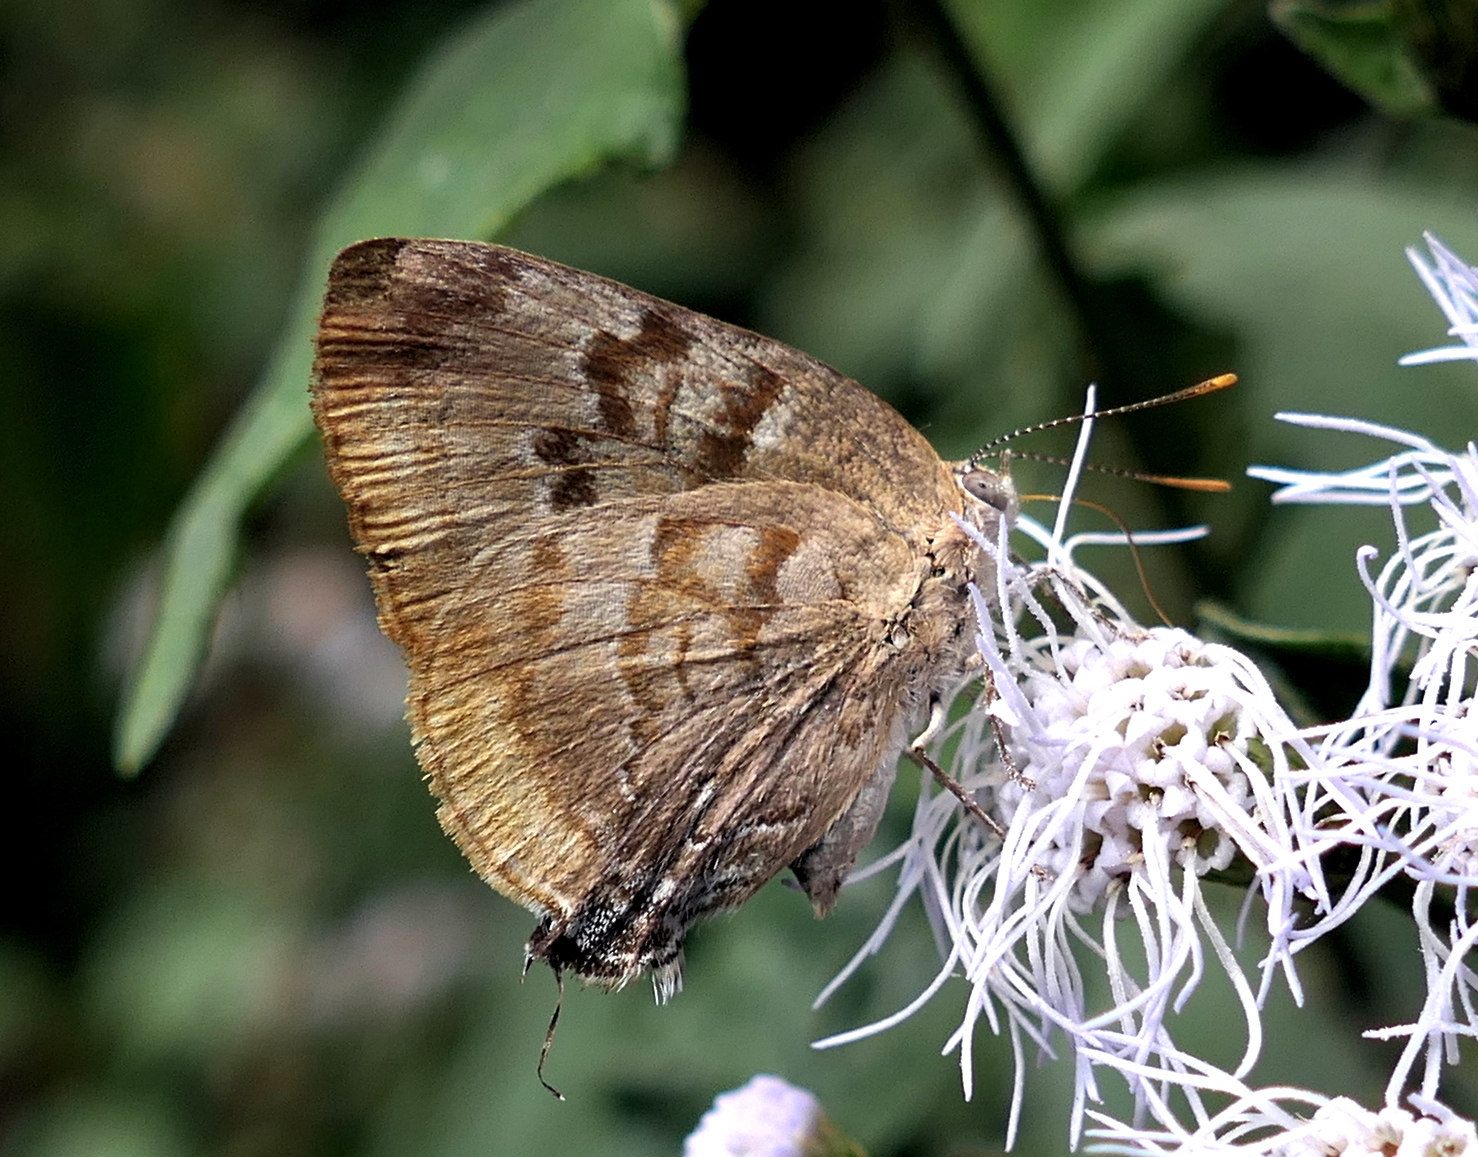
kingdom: Animalia
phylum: Arthropoda
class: Insecta
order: Lepidoptera
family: Lycaenidae
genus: Rekoa
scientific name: Rekoa palegon
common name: Gold-bordered hairstreak
